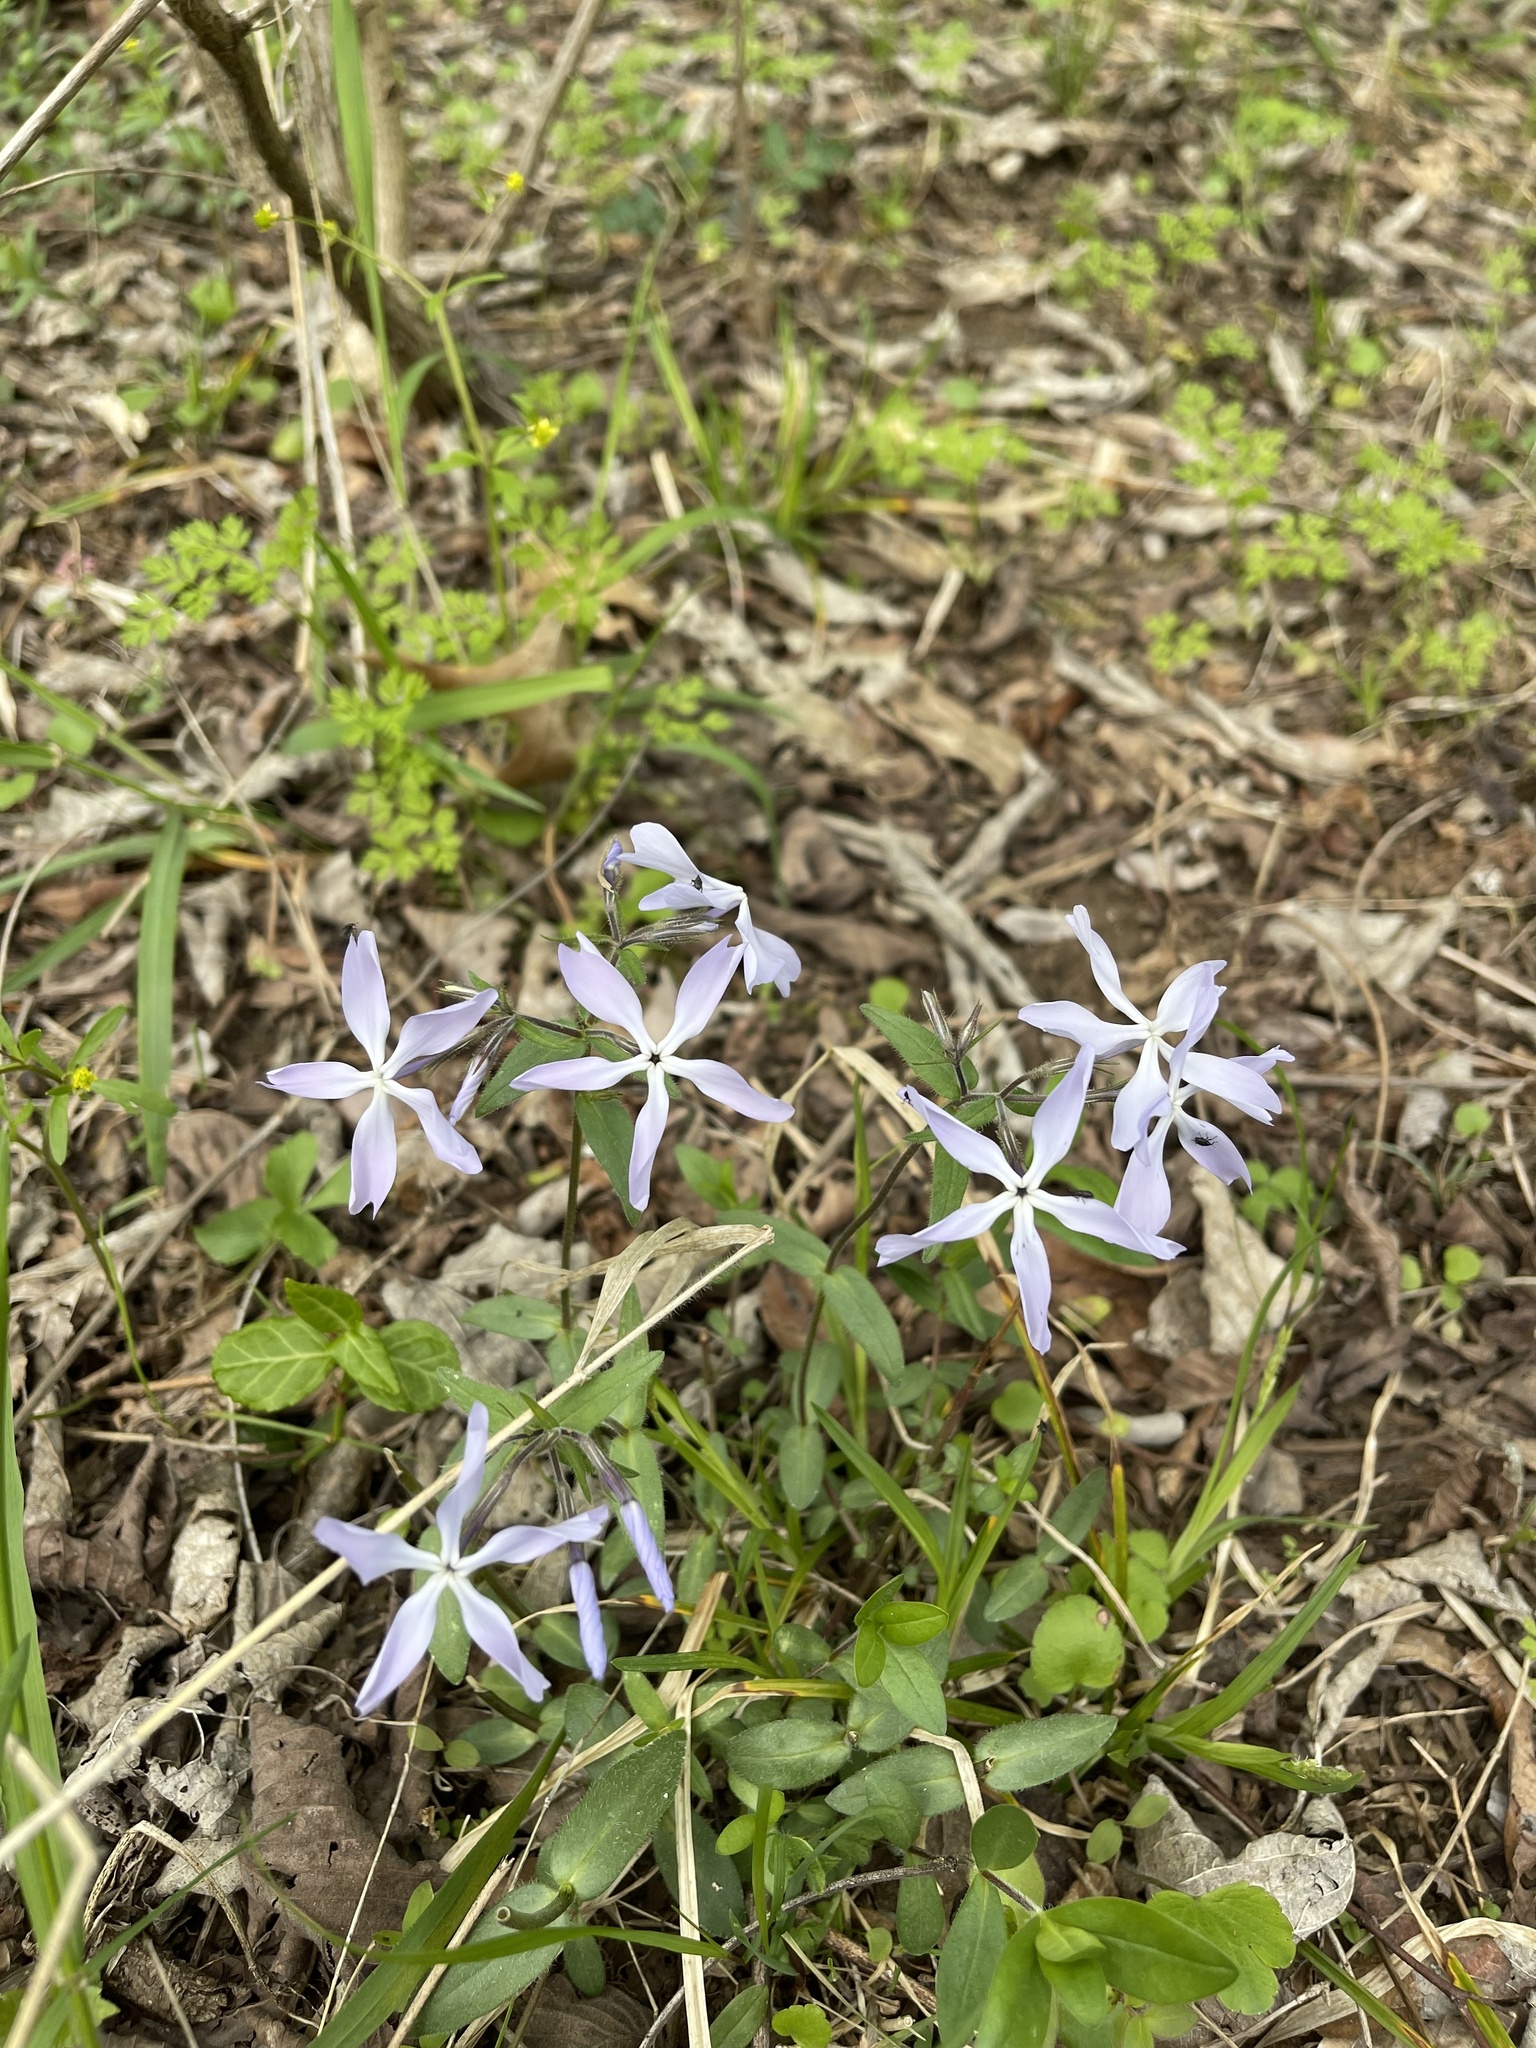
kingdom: Plantae
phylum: Tracheophyta
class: Magnoliopsida
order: Ericales
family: Polemoniaceae
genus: Phlox
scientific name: Phlox divaricata
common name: Blue phlox
